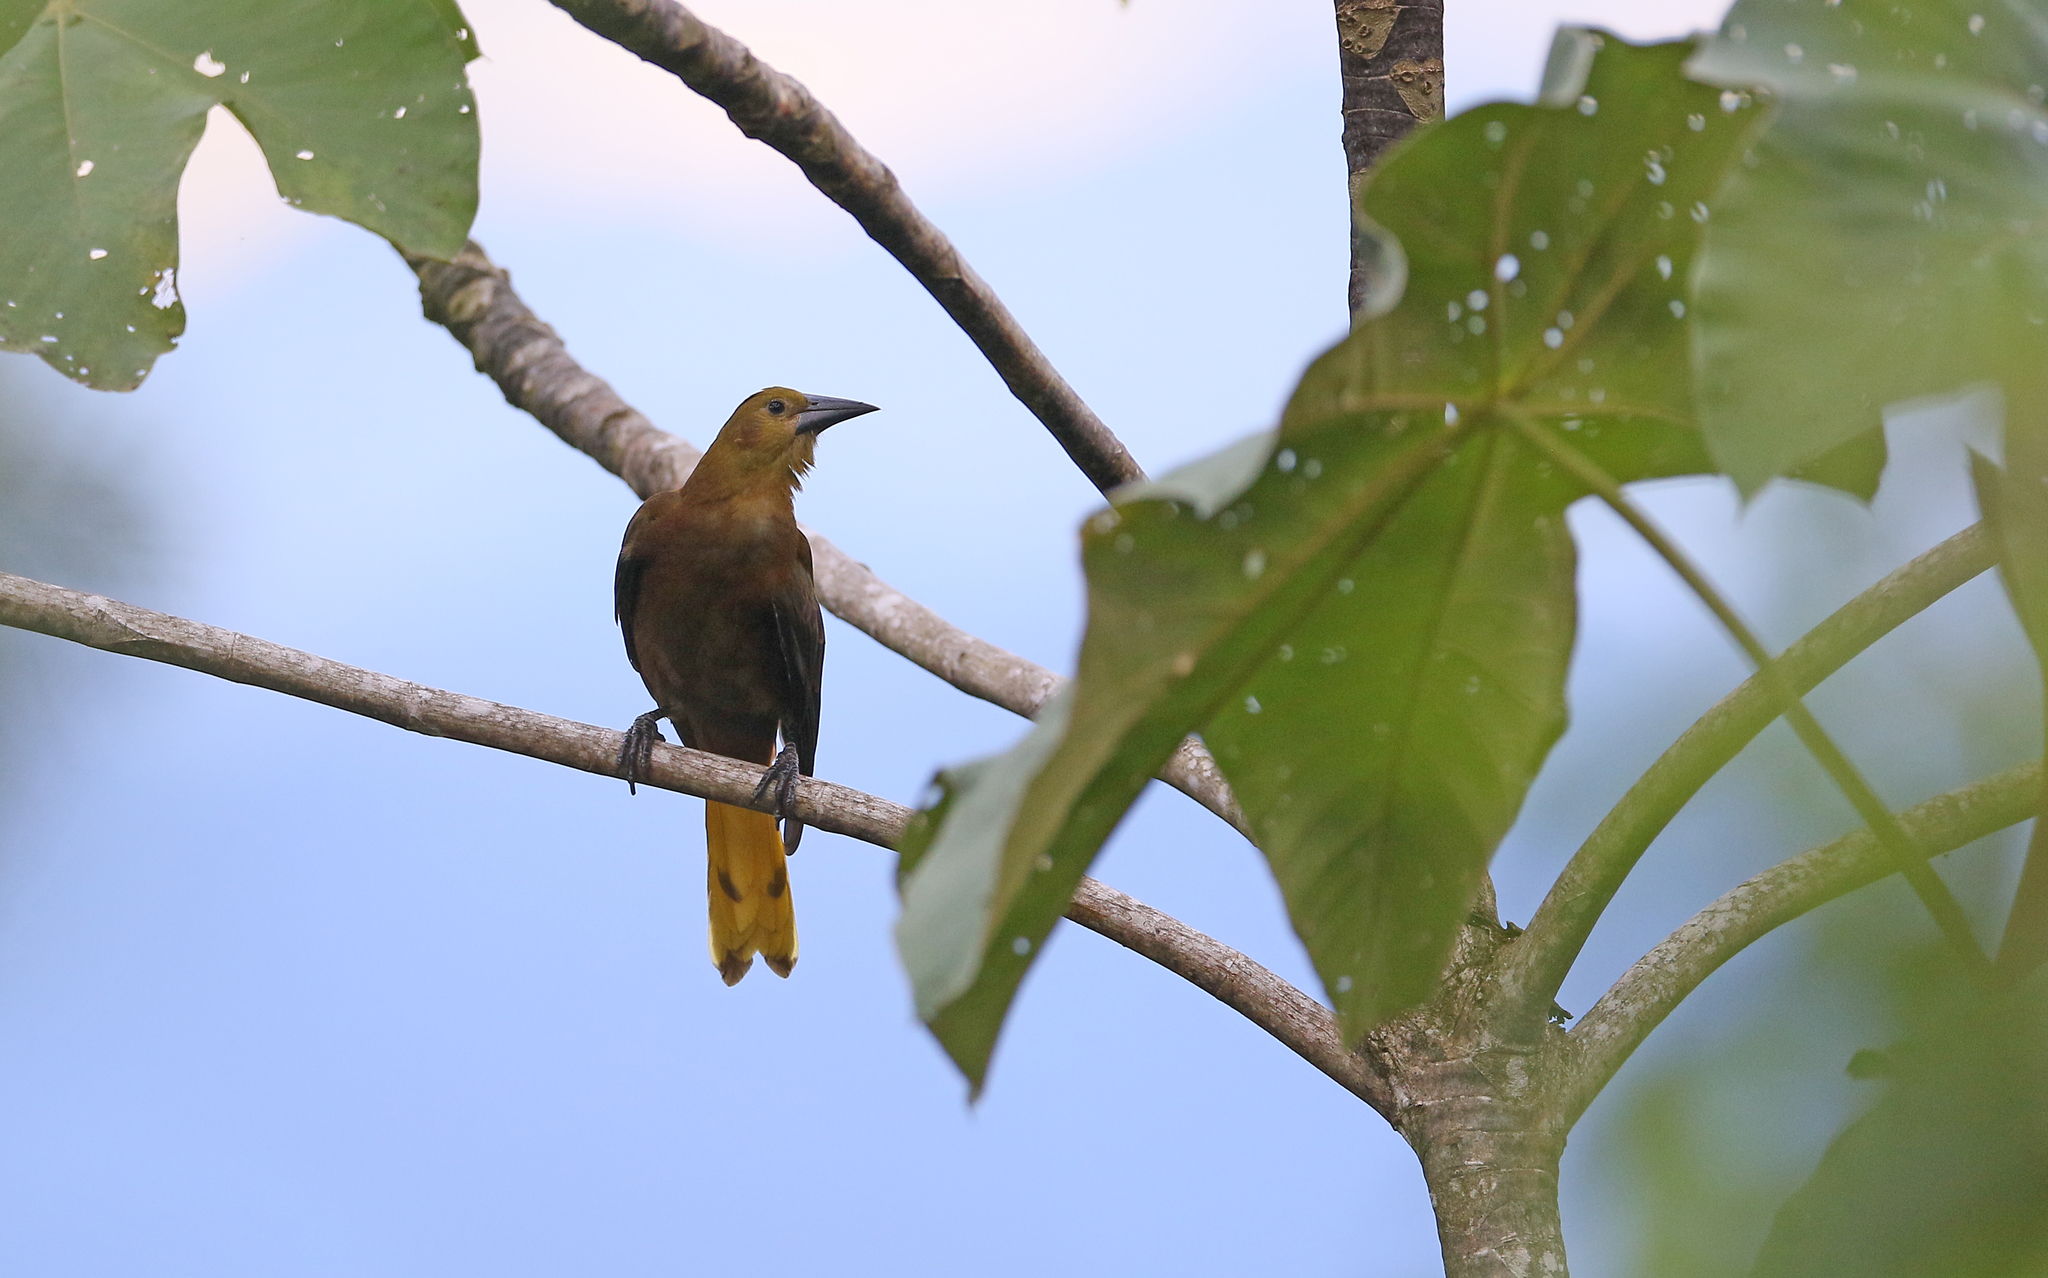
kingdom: Animalia
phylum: Chordata
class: Aves
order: Passeriformes
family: Icteridae
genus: Psarocolius
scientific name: Psarocolius angustifrons
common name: Russet-backed oropendola
